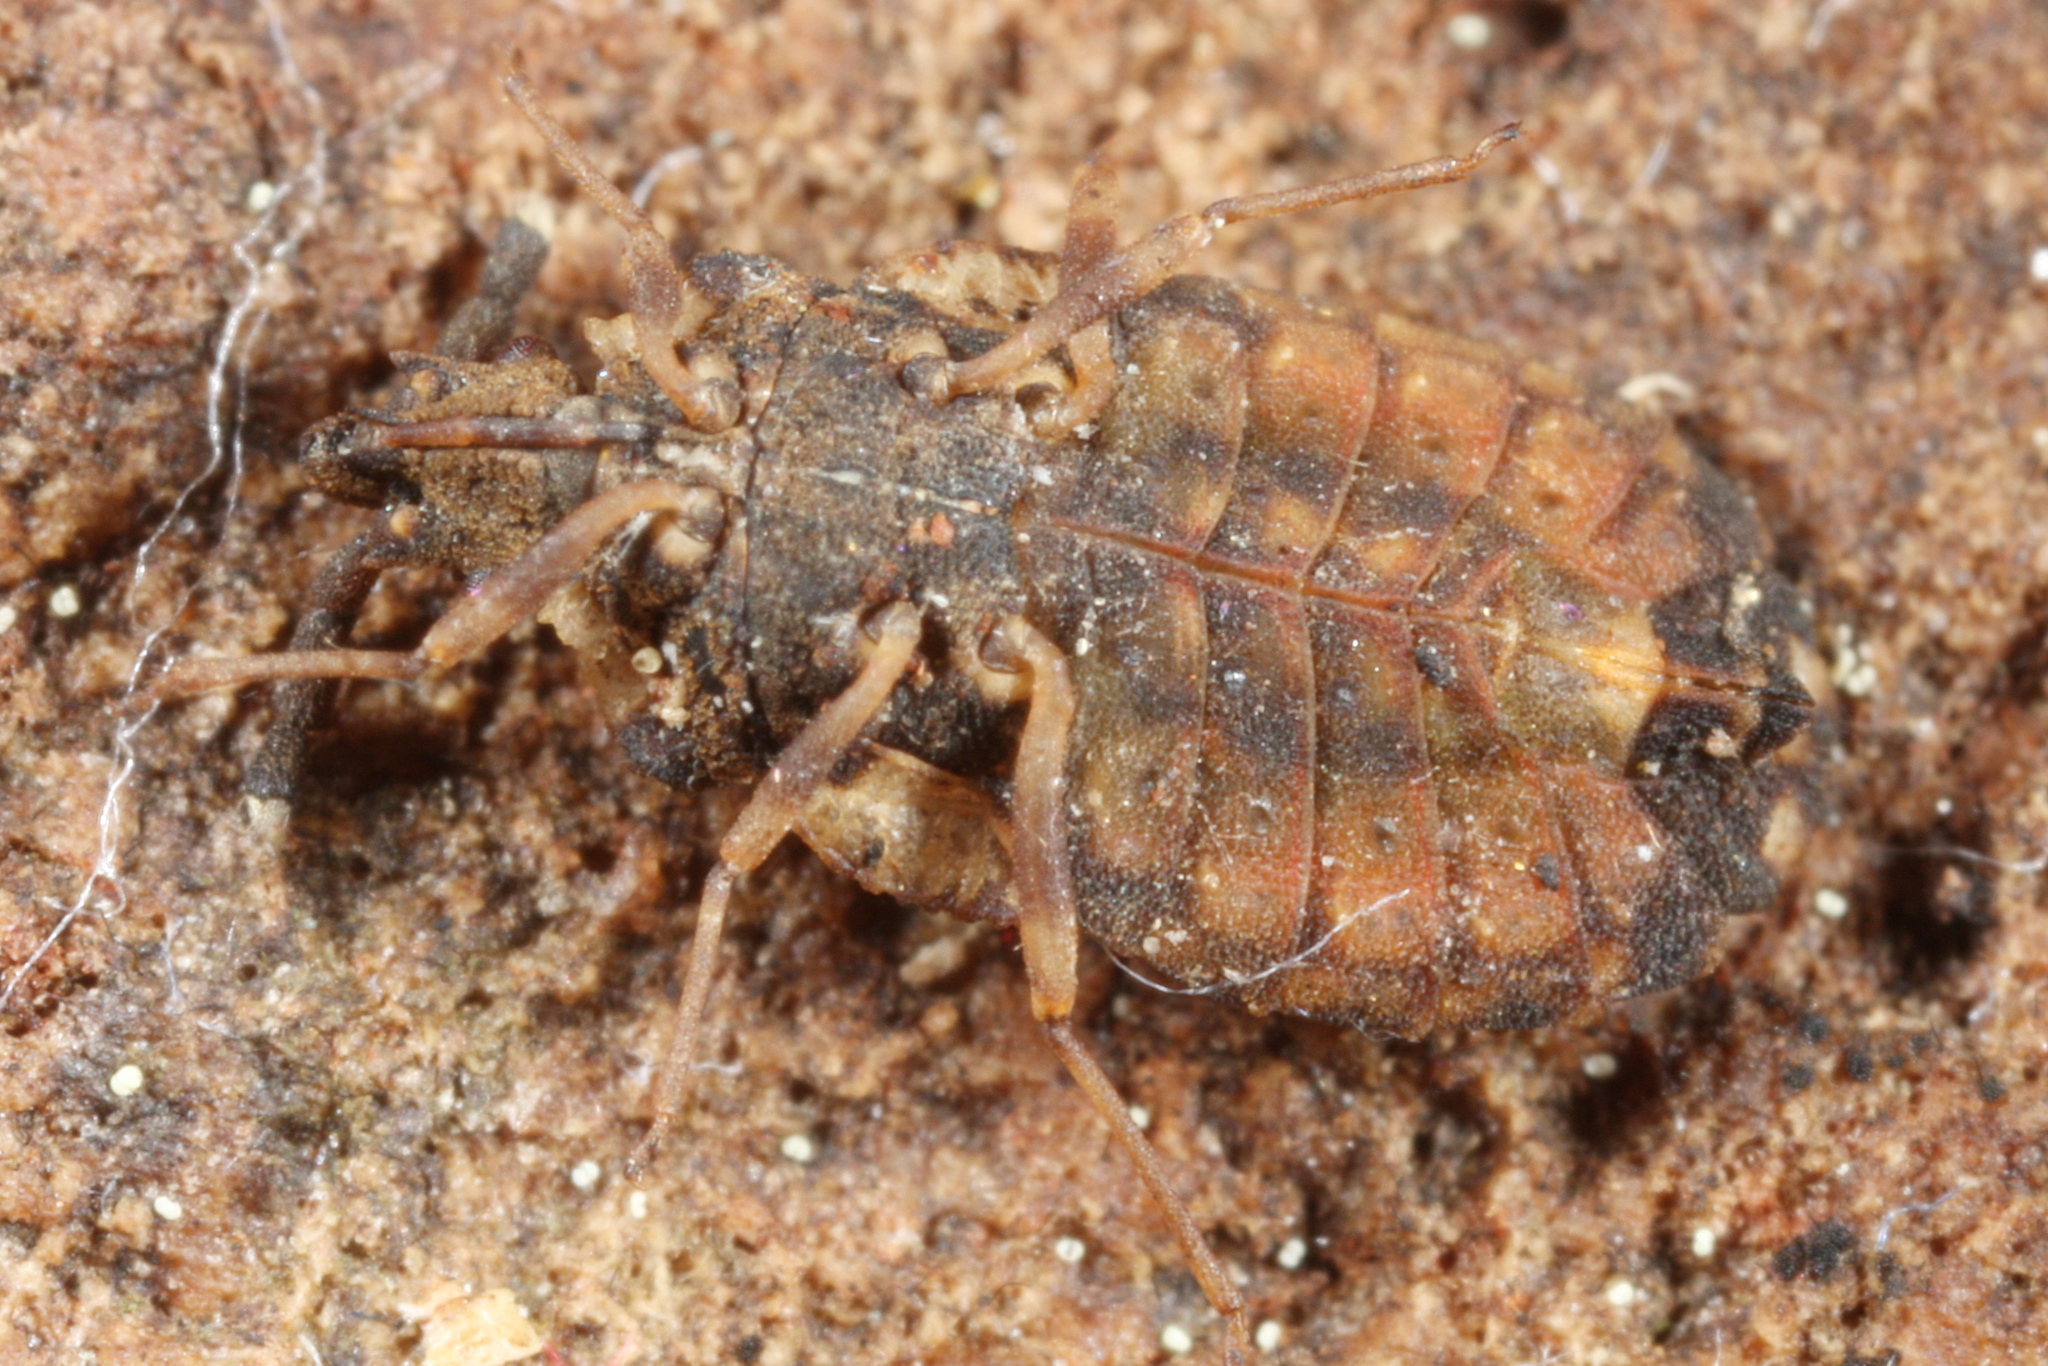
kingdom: Animalia
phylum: Arthropoda
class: Insecta
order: Hemiptera
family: Aradidae
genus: Aradus
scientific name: Aradus depressus
